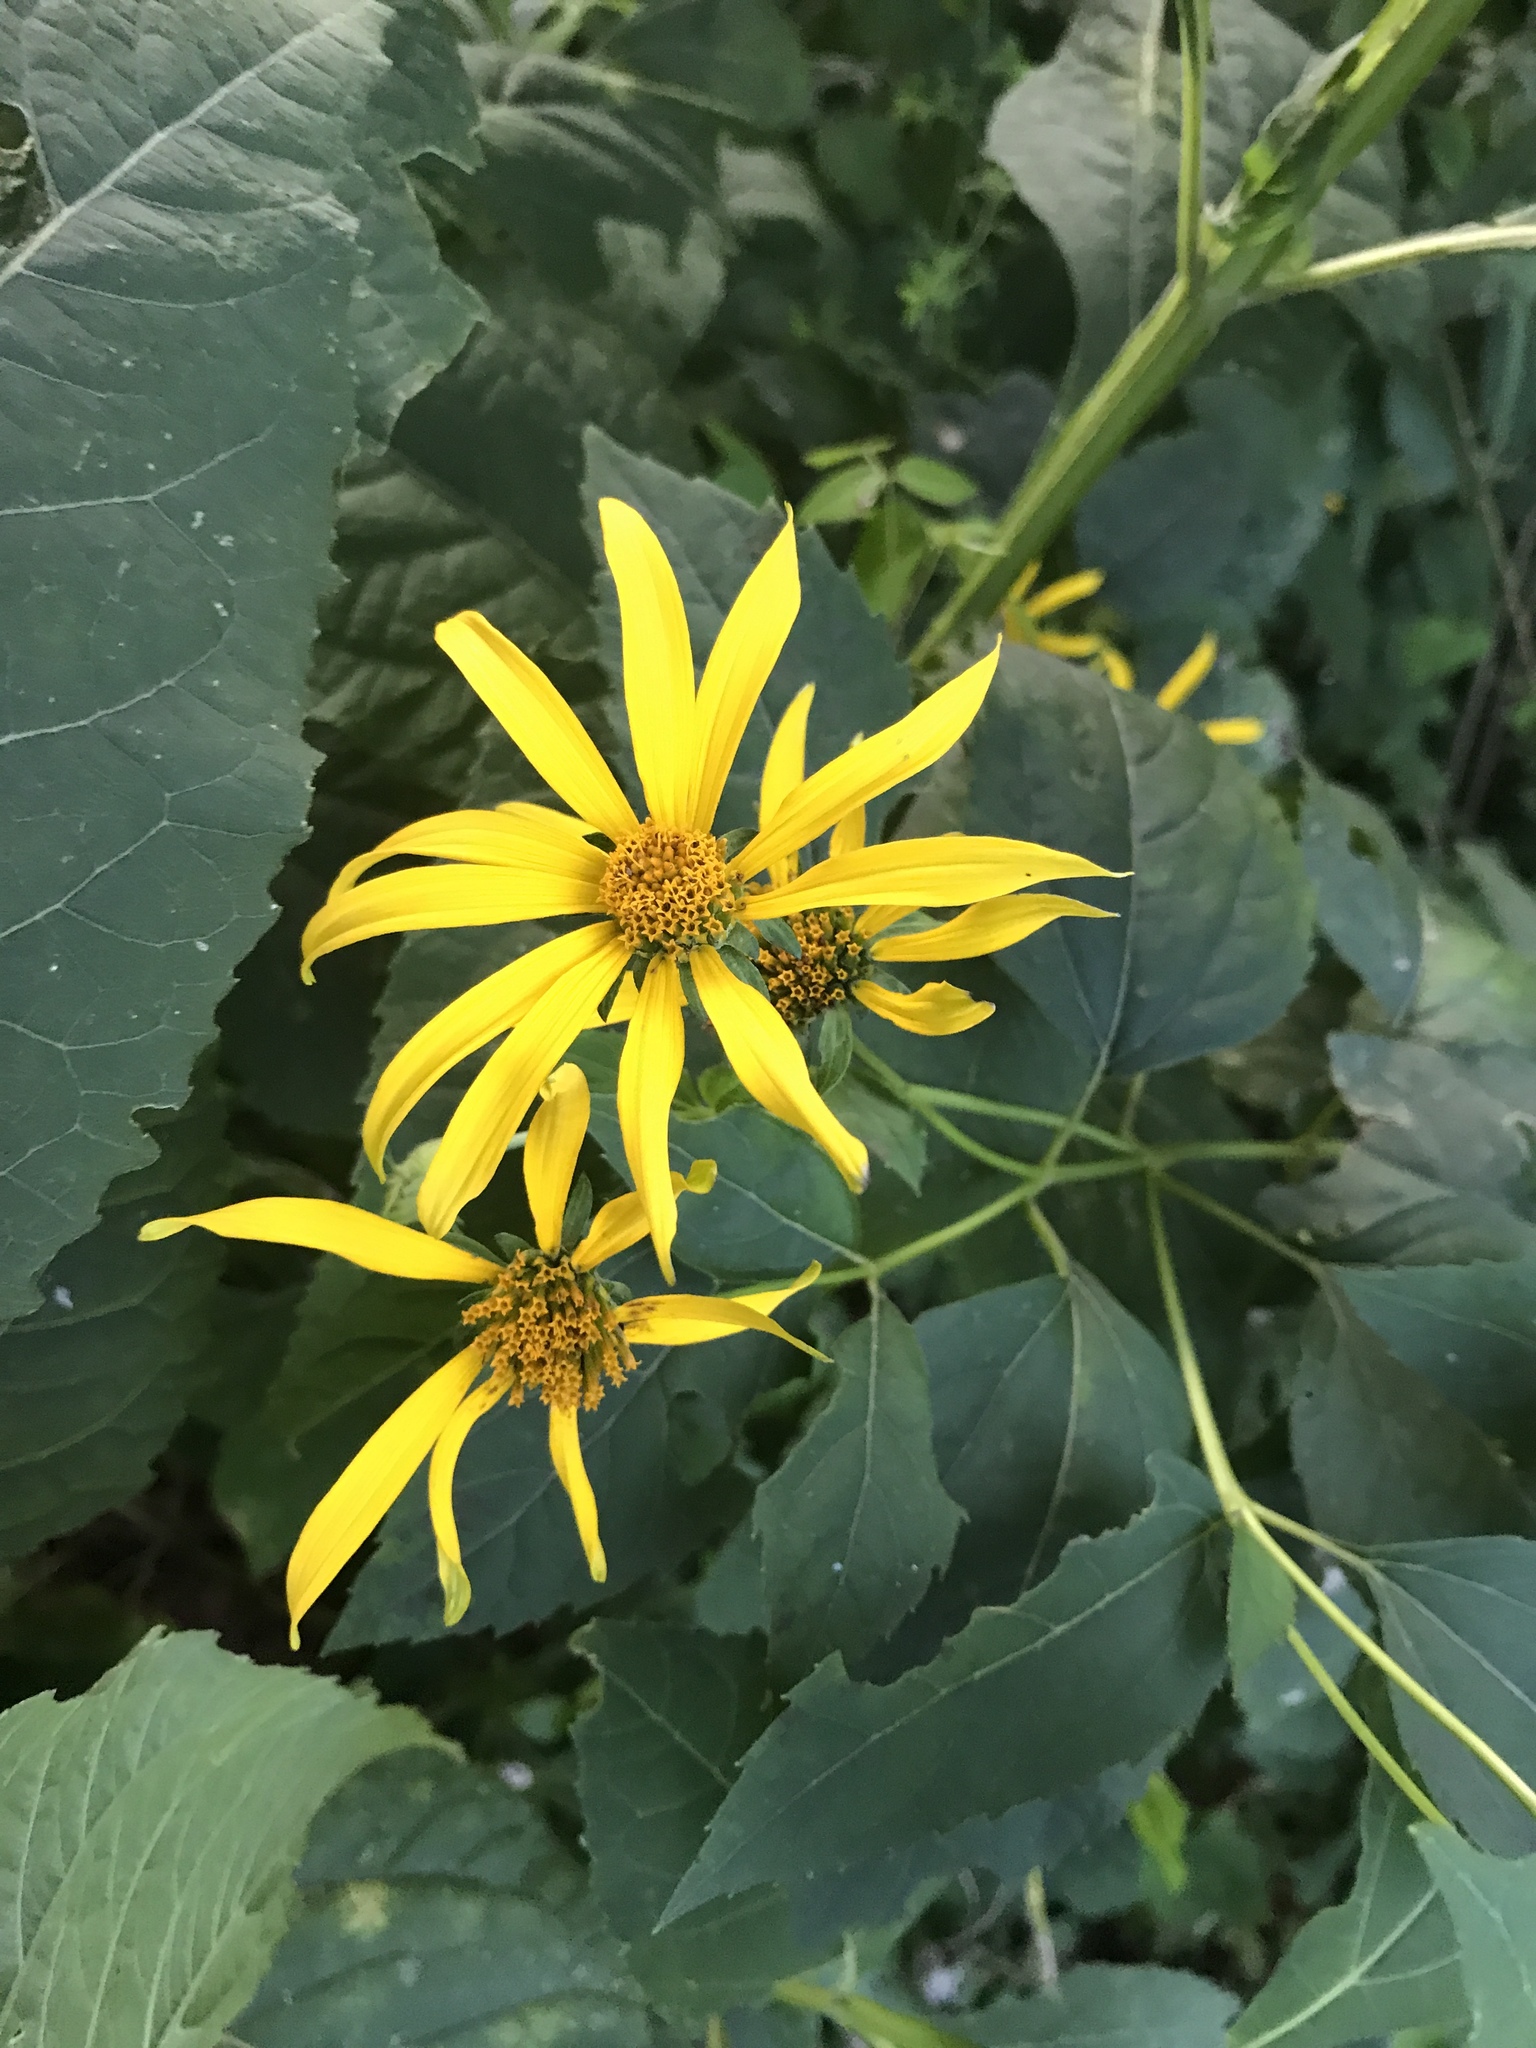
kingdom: Plantae
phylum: Tracheophyta
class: Magnoliopsida
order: Asterales
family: Asteraceae
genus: Rudbeckia
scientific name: Rudbeckia laciniata
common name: Coneflower
